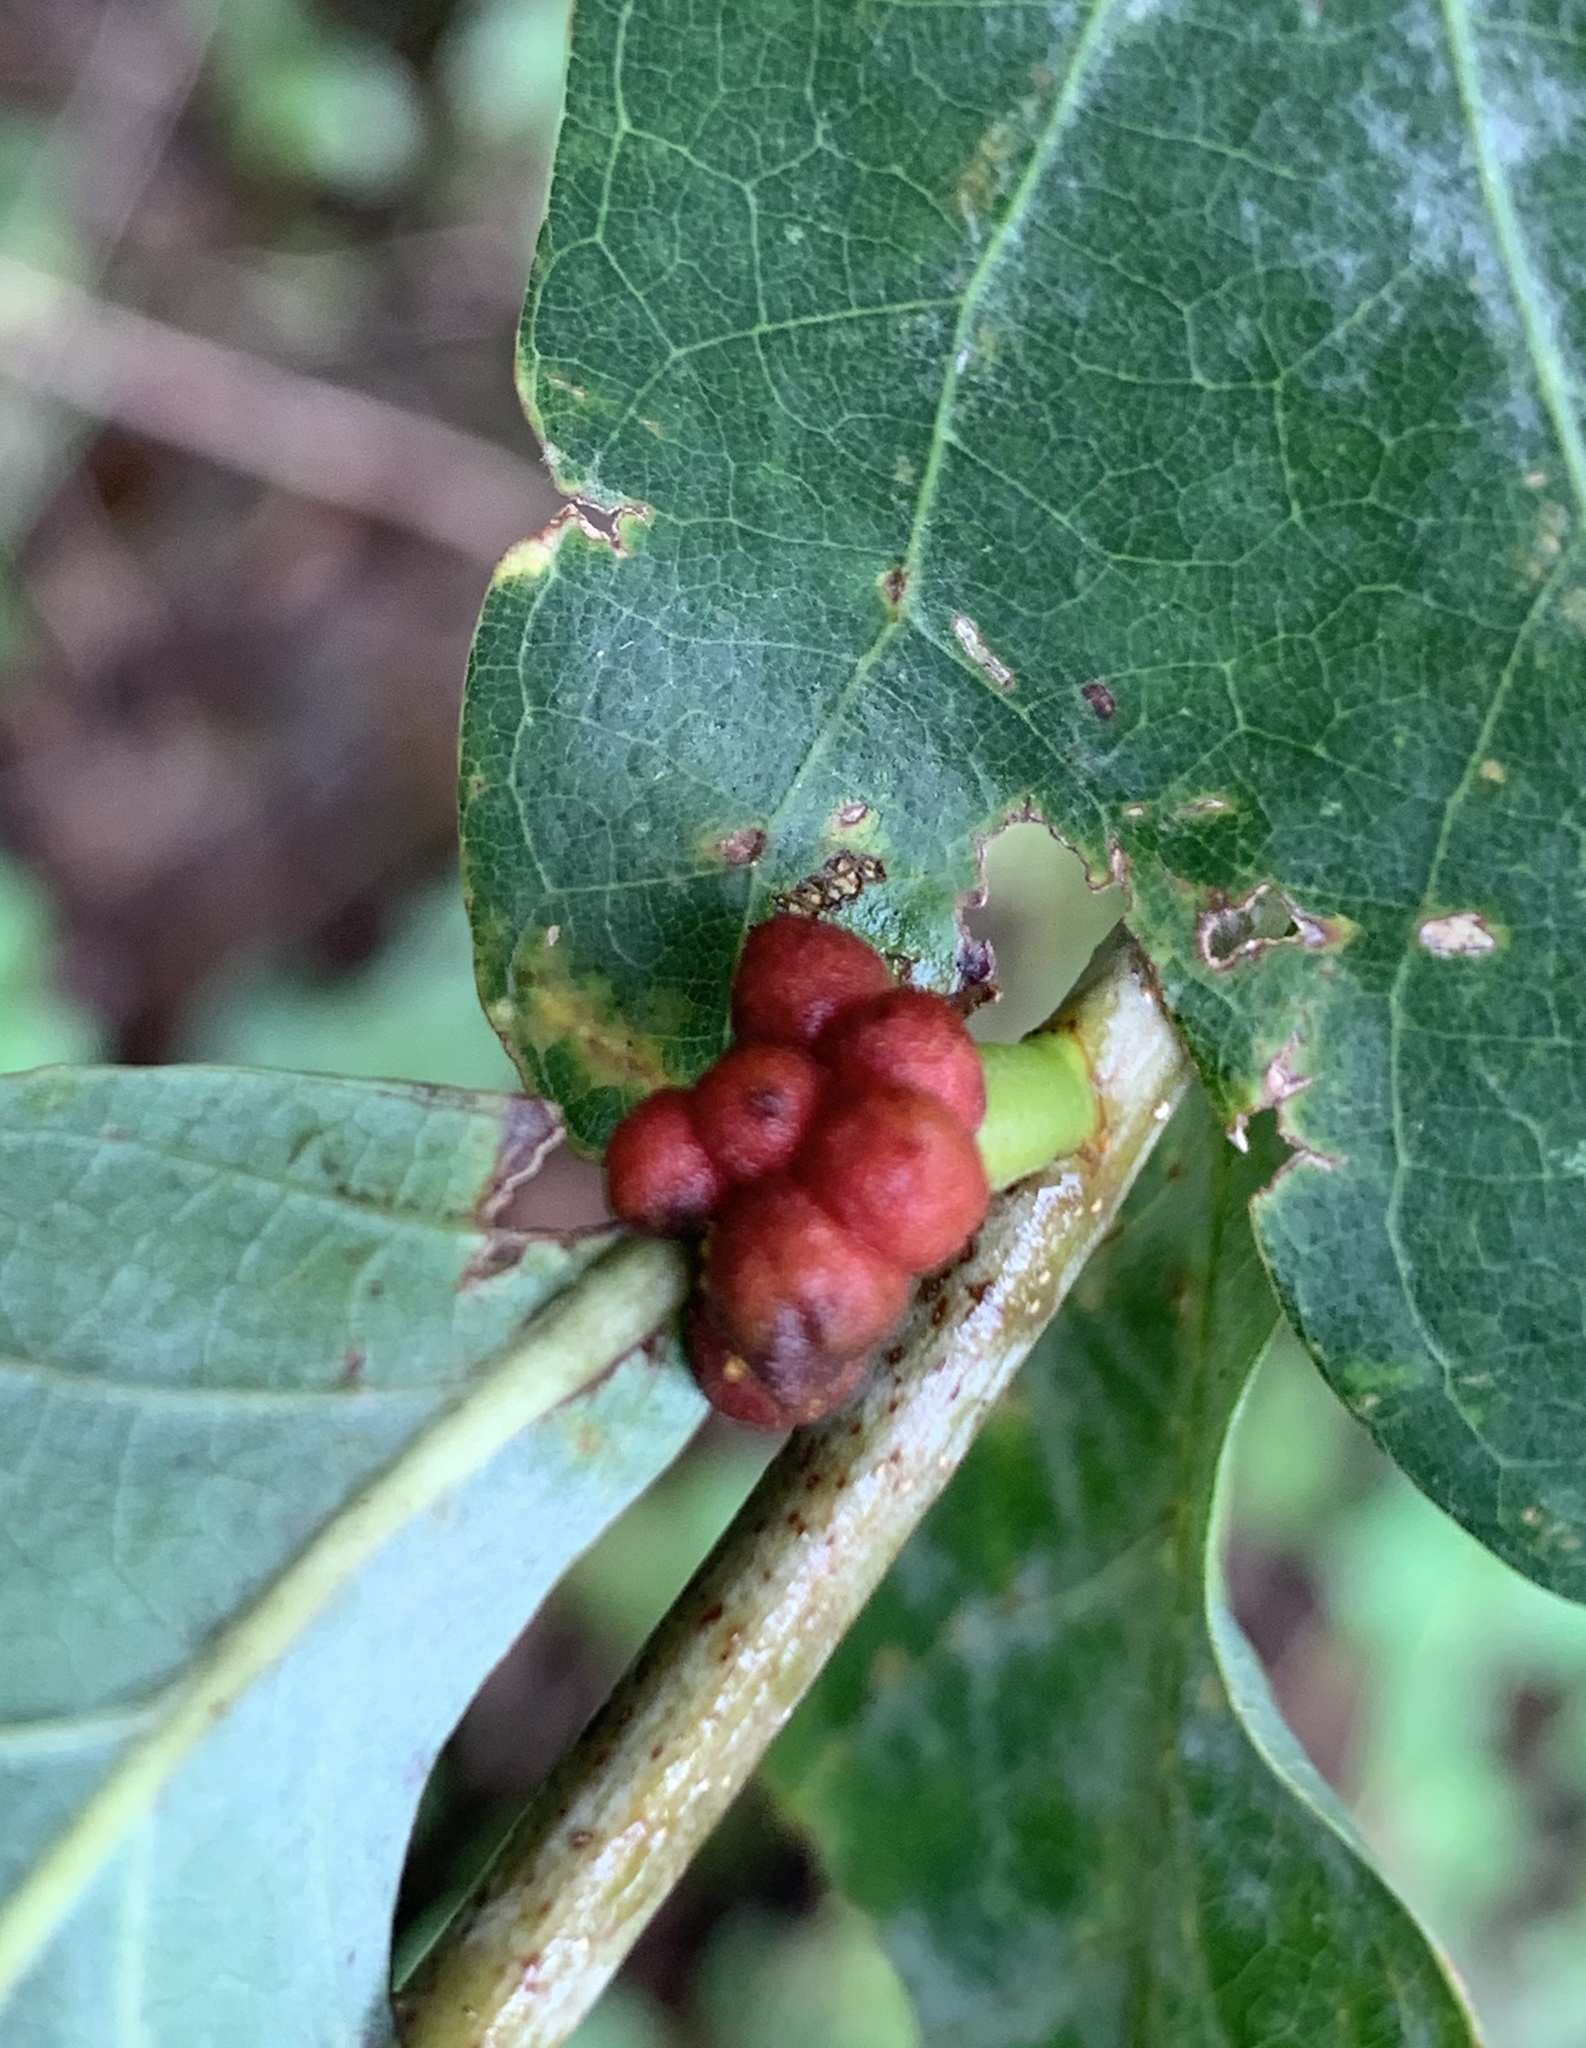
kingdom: Animalia
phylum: Arthropoda
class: Insecta
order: Hymenoptera
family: Cynipidae
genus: Andricus
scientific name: Andricus
